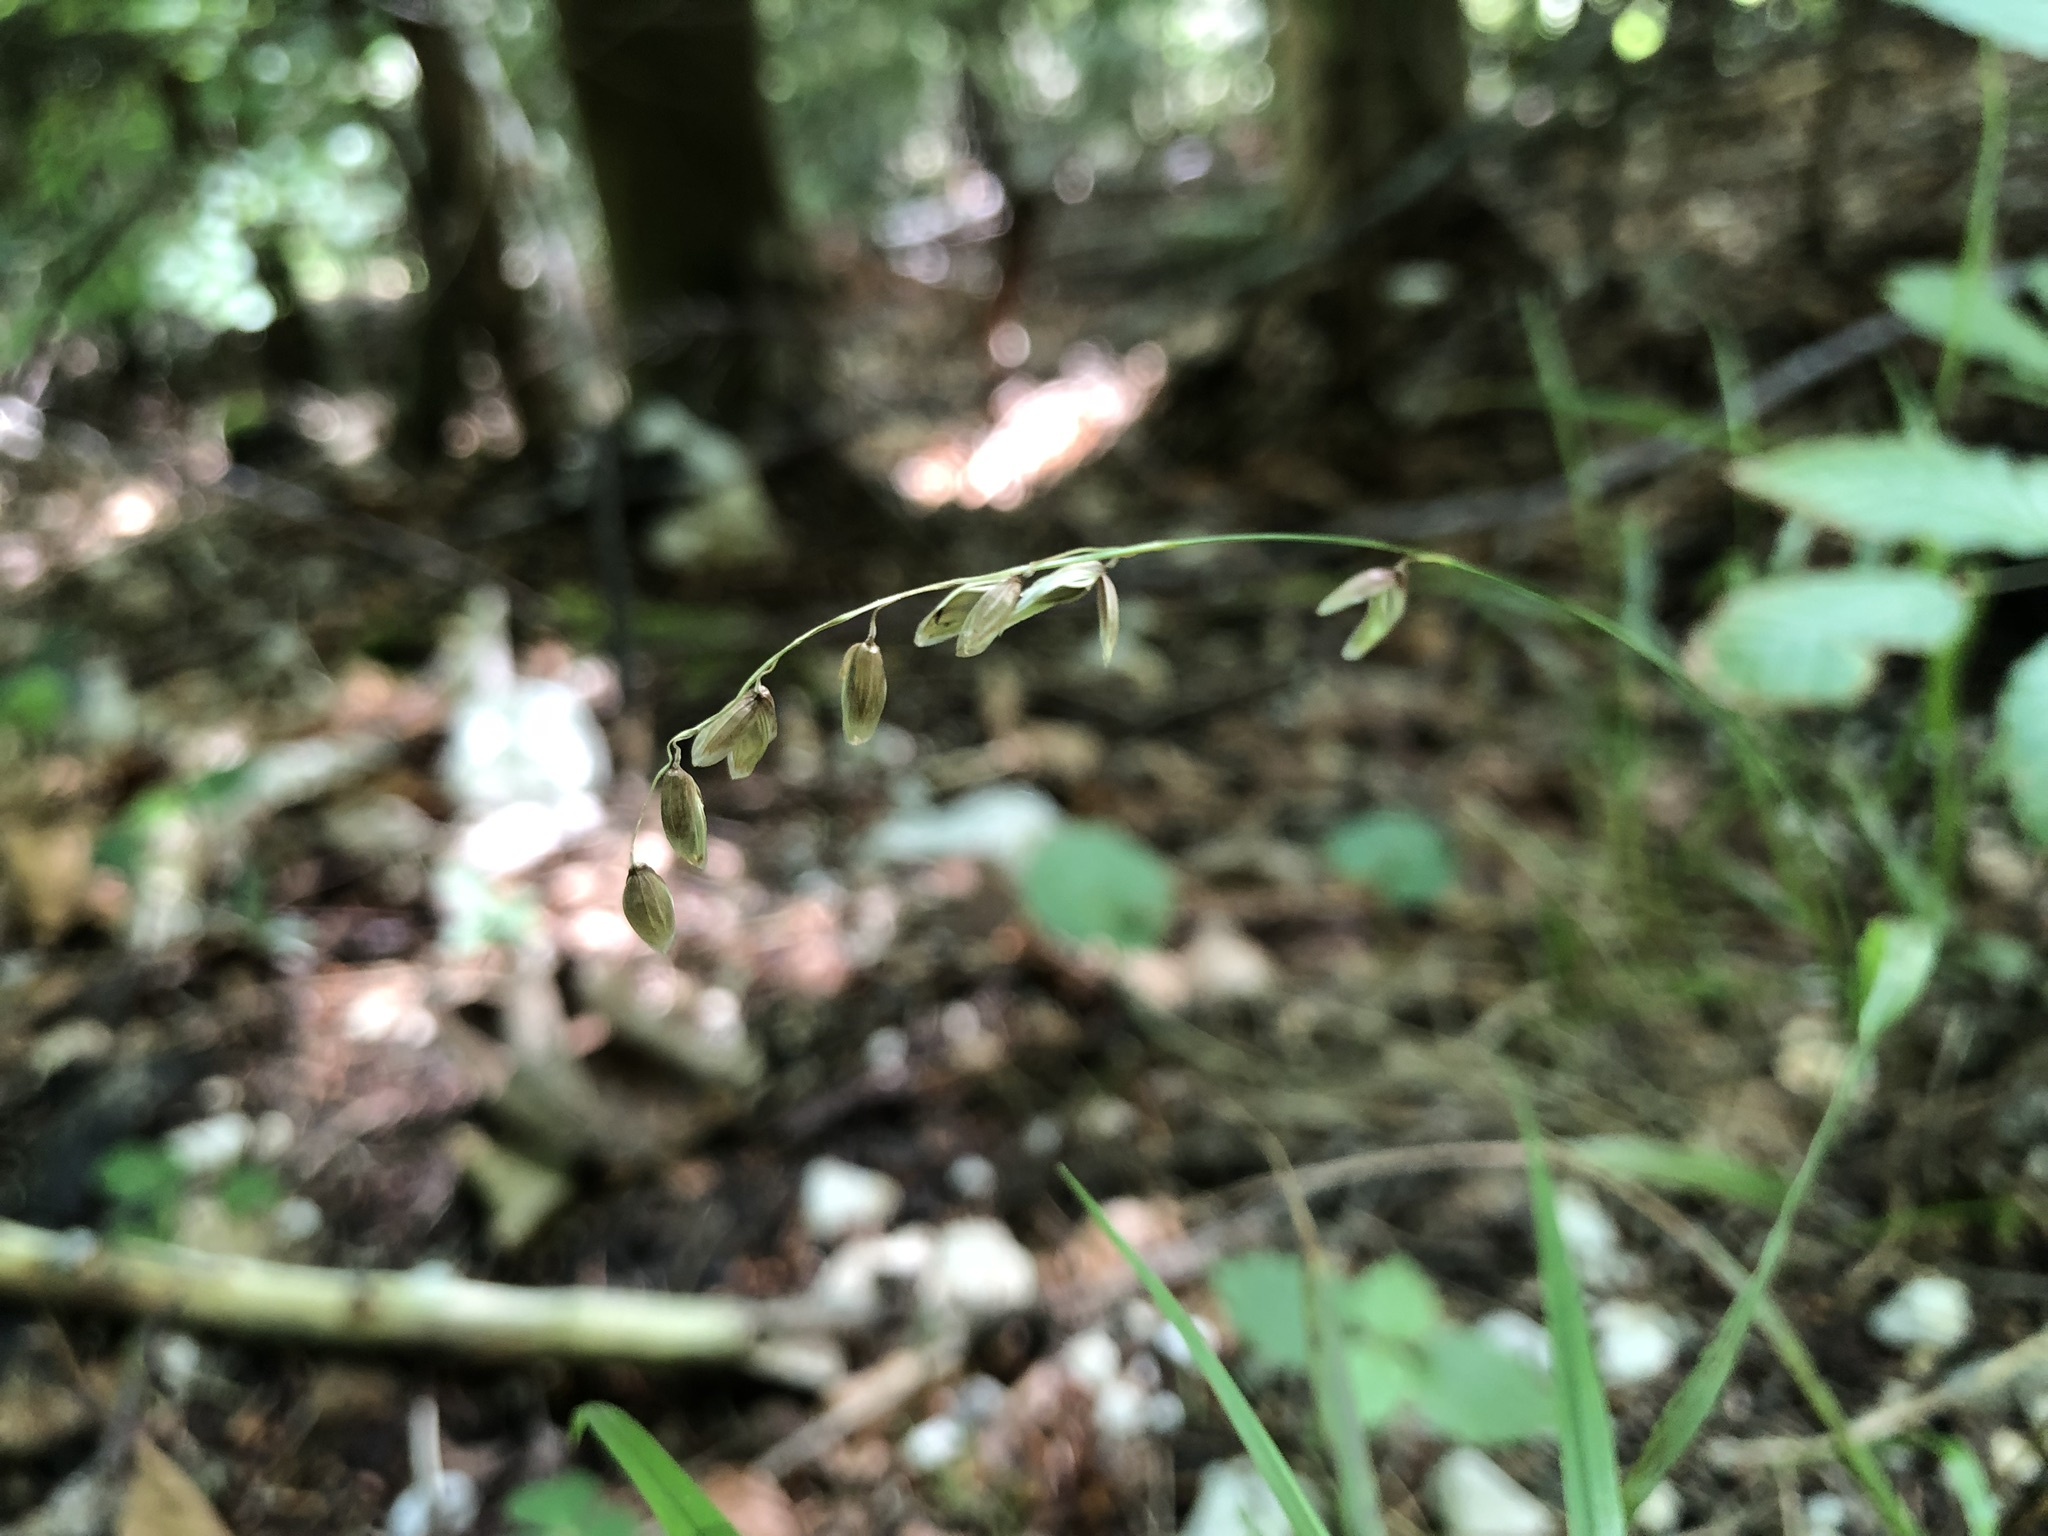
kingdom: Plantae
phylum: Tracheophyta
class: Liliopsida
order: Poales
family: Poaceae
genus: Melica
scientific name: Melica uniflora
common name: Wood melick
